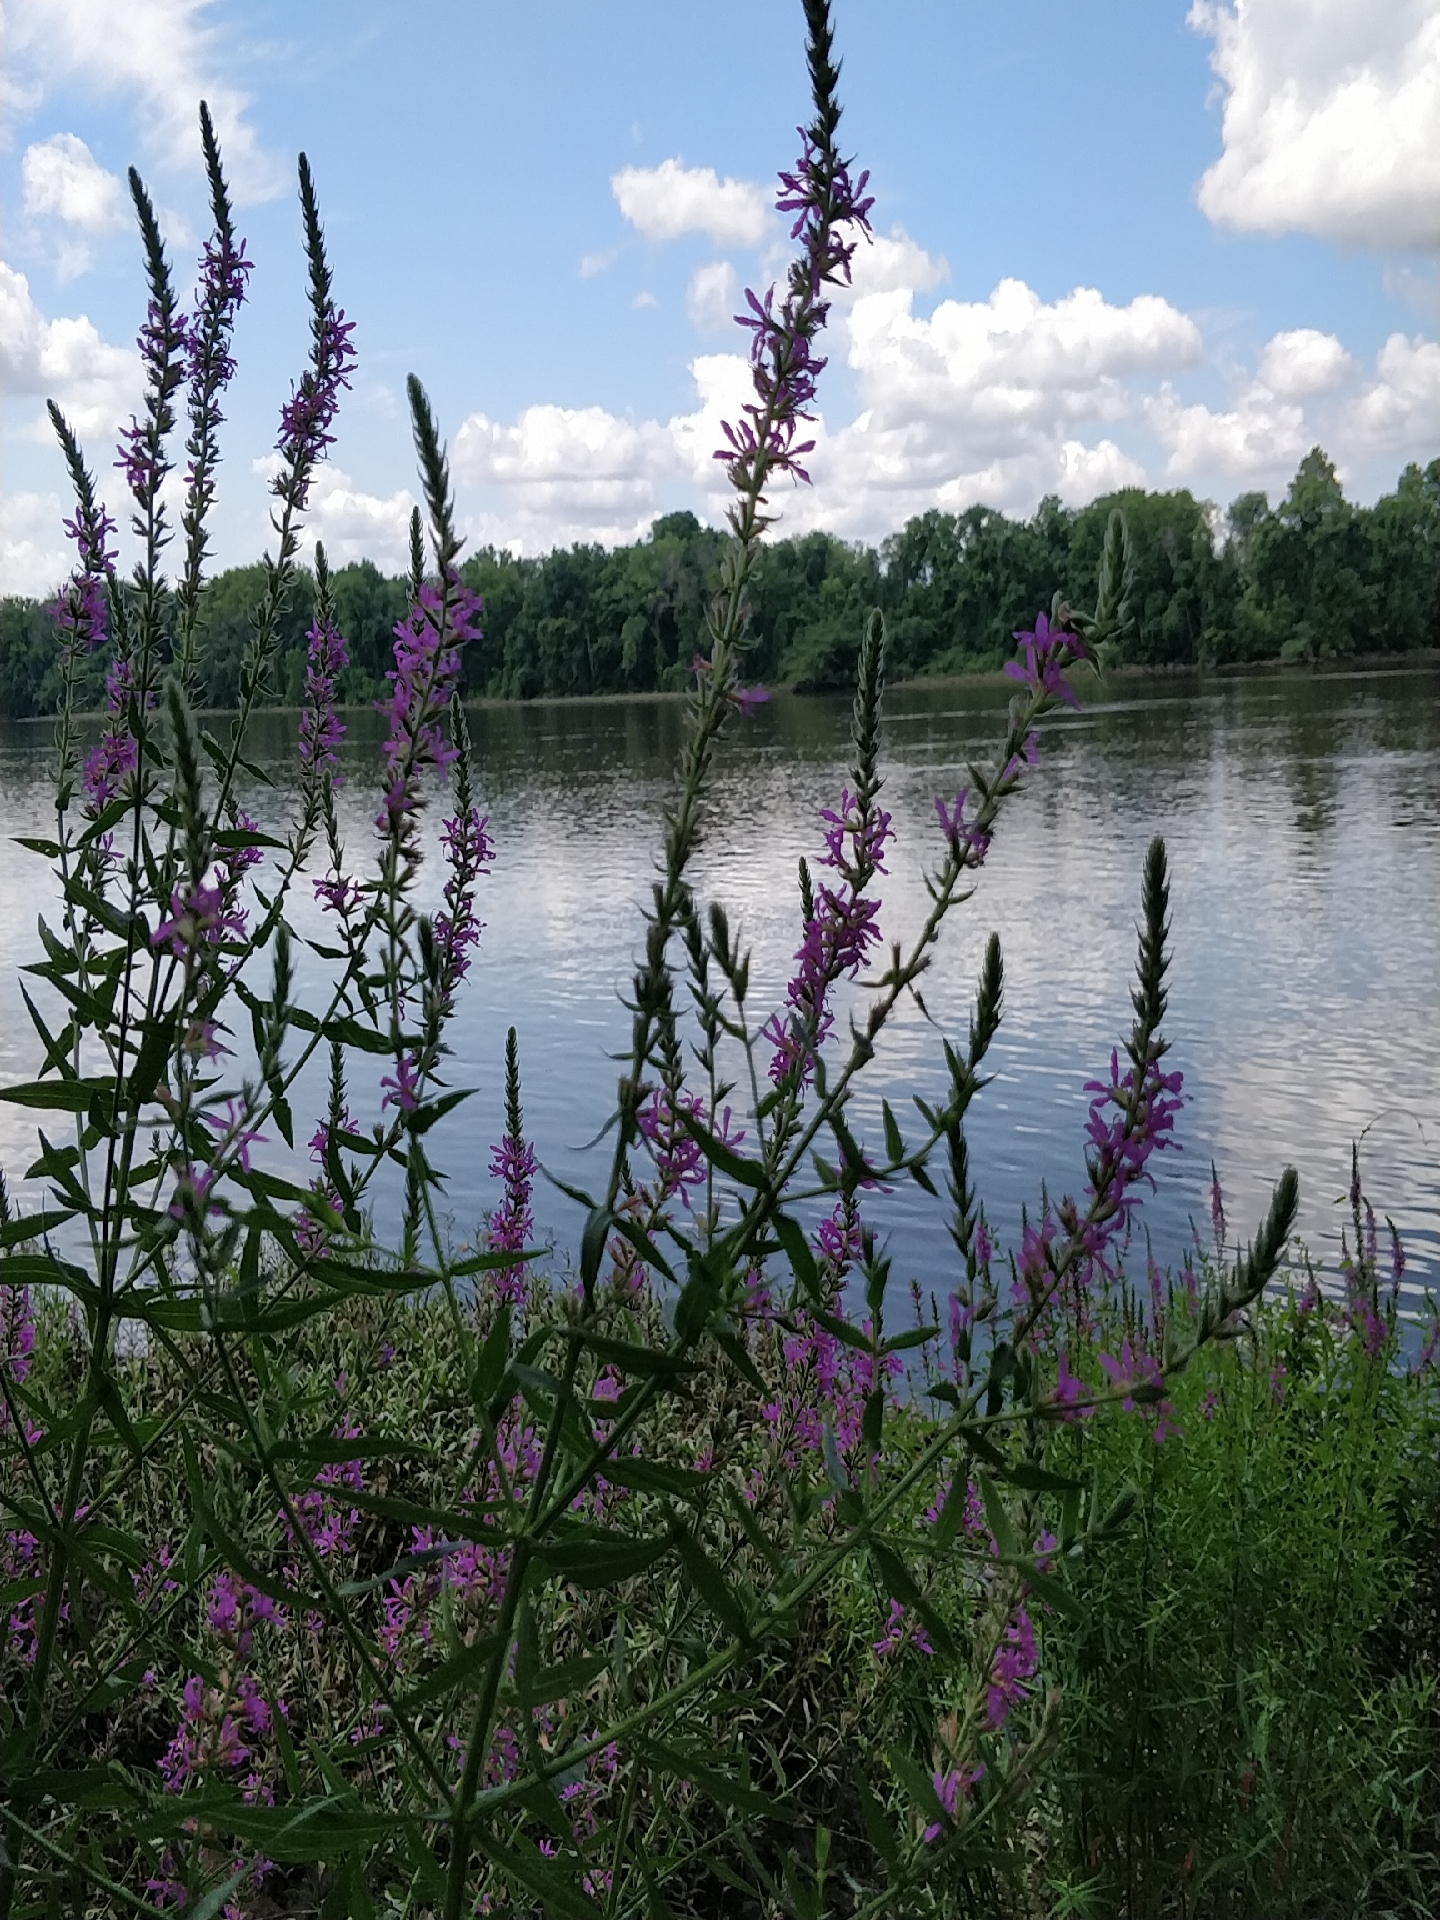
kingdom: Plantae
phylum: Tracheophyta
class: Magnoliopsida
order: Myrtales
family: Lythraceae
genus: Lythrum
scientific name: Lythrum salicaria
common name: Purple loosestrife
